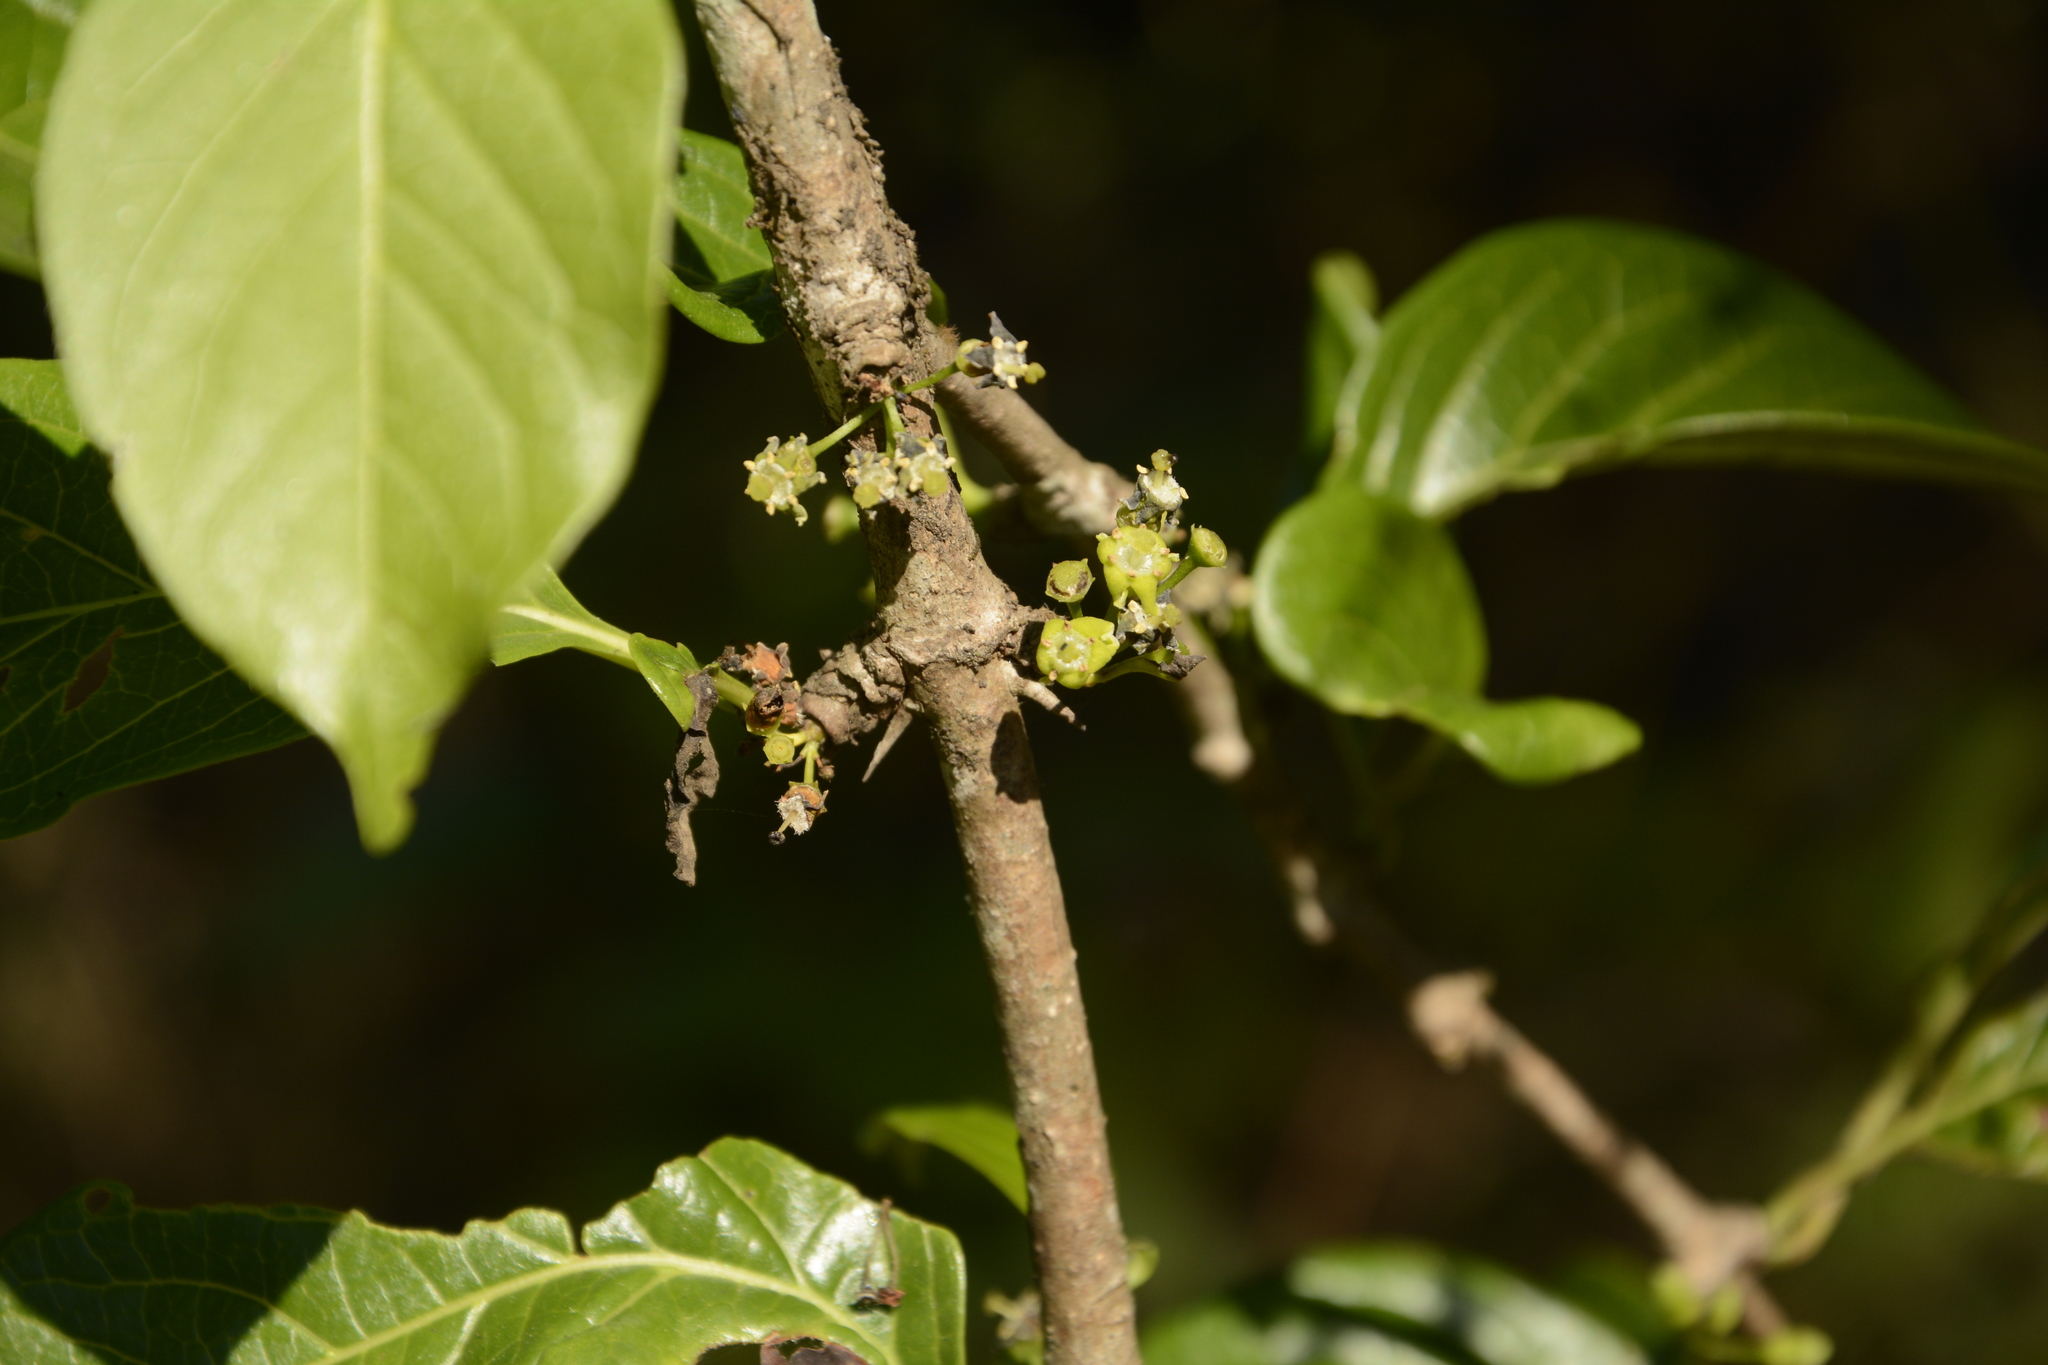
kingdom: Plantae
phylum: Tracheophyta
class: Magnoliopsida
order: Gentianales
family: Rubiaceae
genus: Meyna
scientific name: Meyna laxiflora
